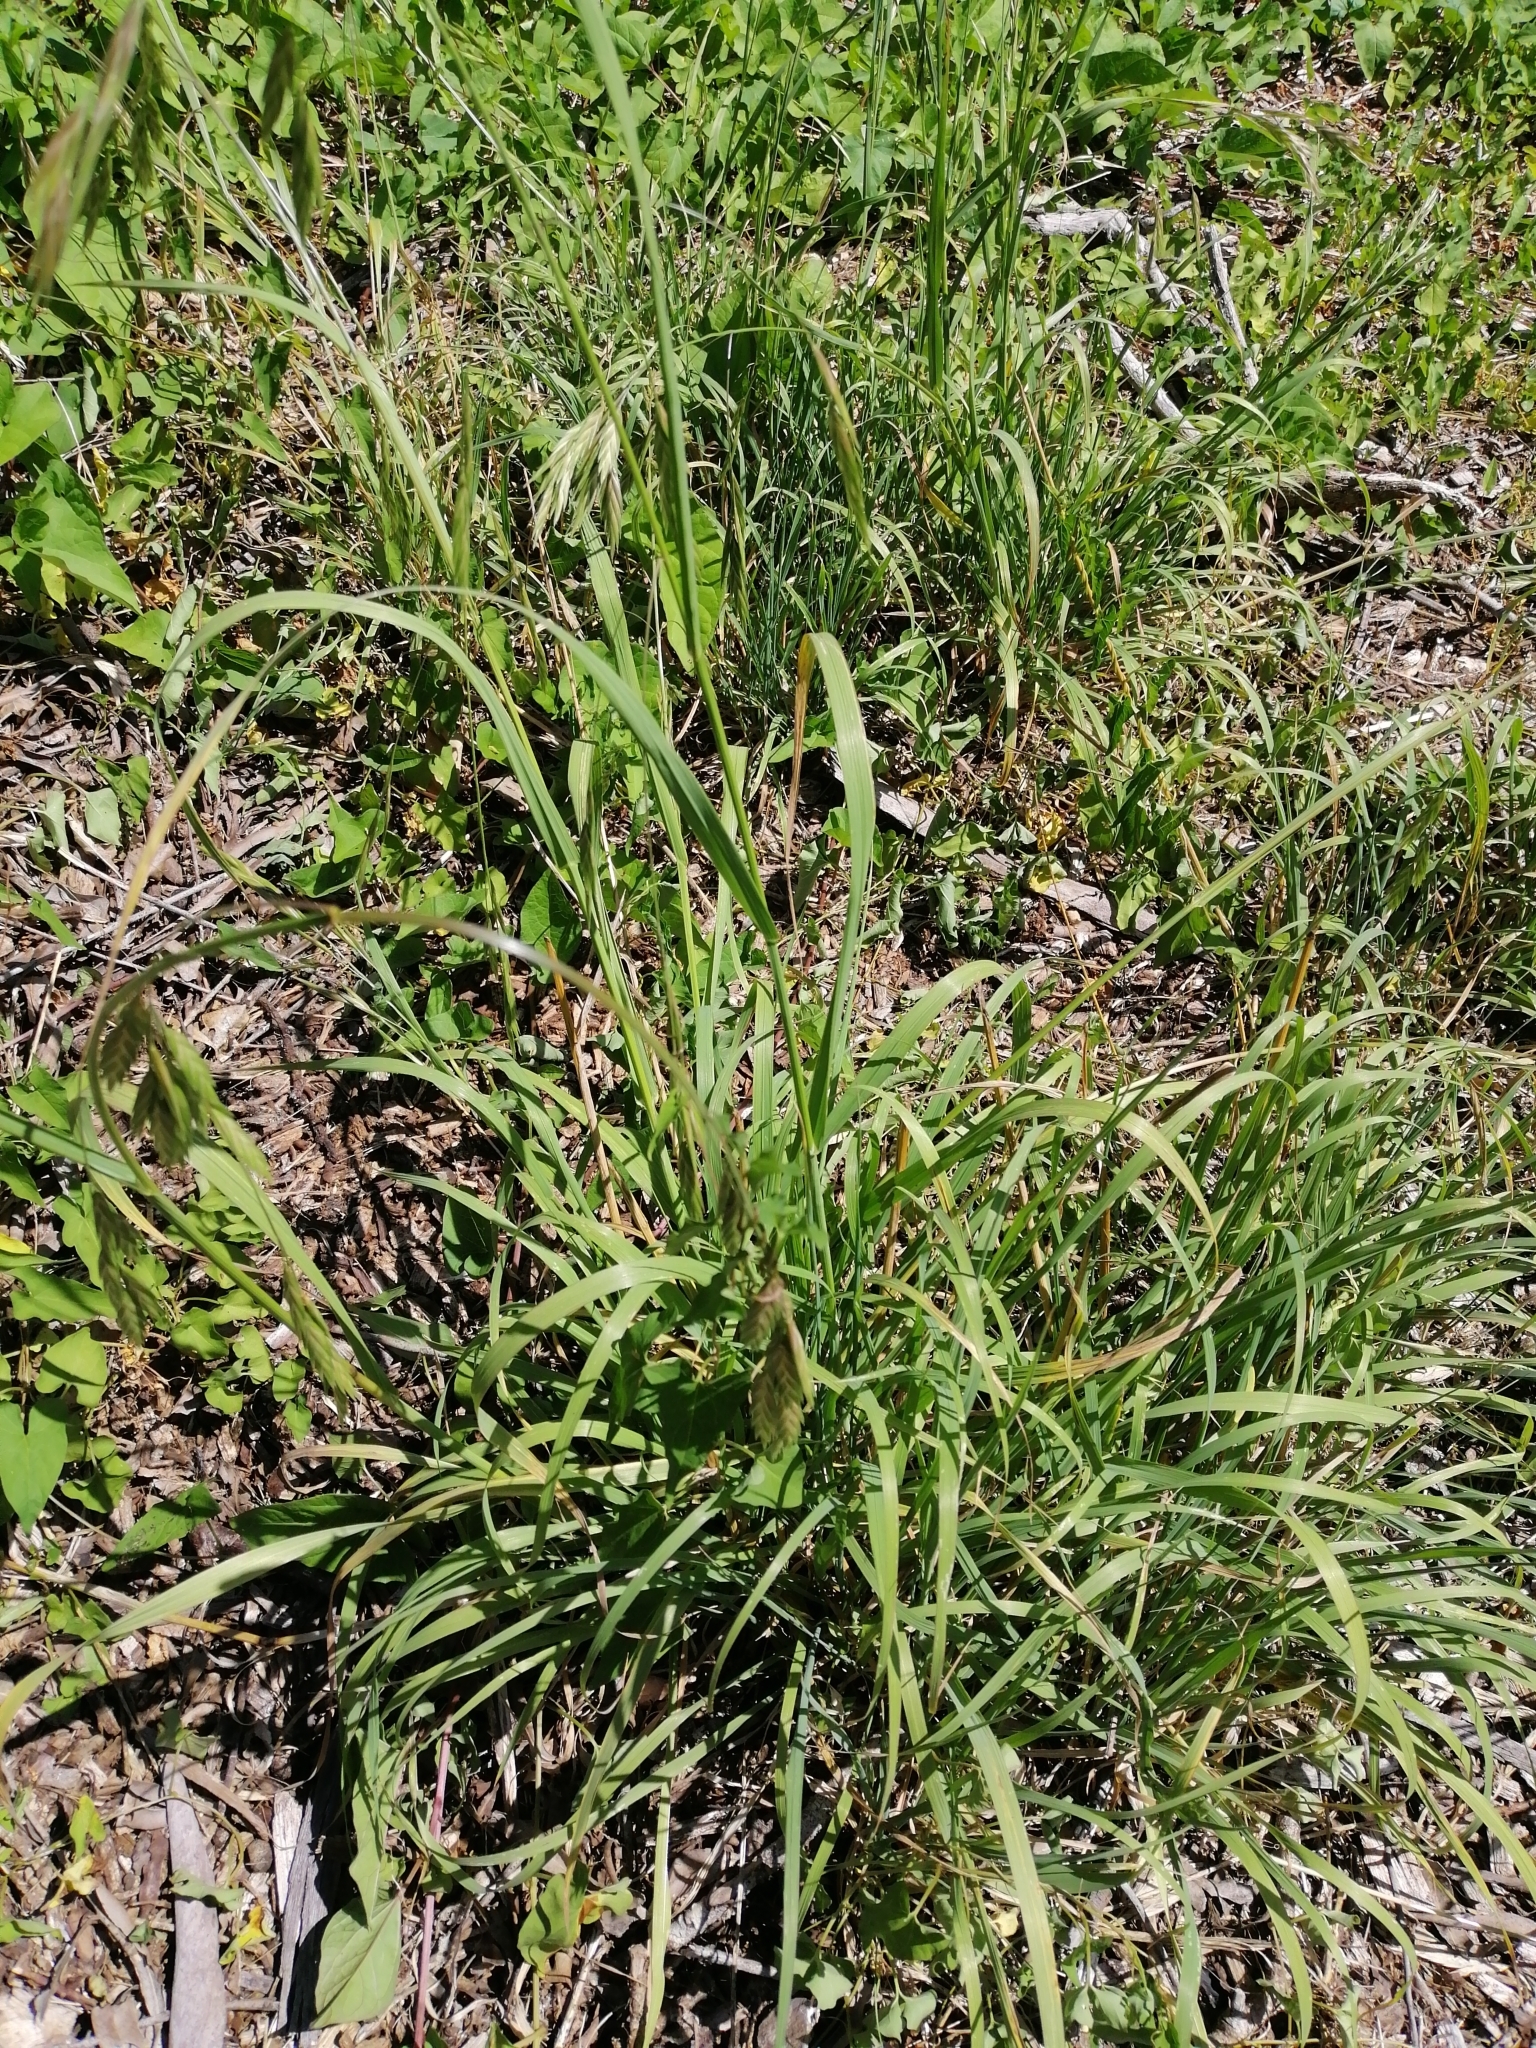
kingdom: Plantae
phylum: Tracheophyta
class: Liliopsida
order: Poales
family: Poaceae
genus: Bromus
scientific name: Bromus catharticus
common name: Rescuegrass
